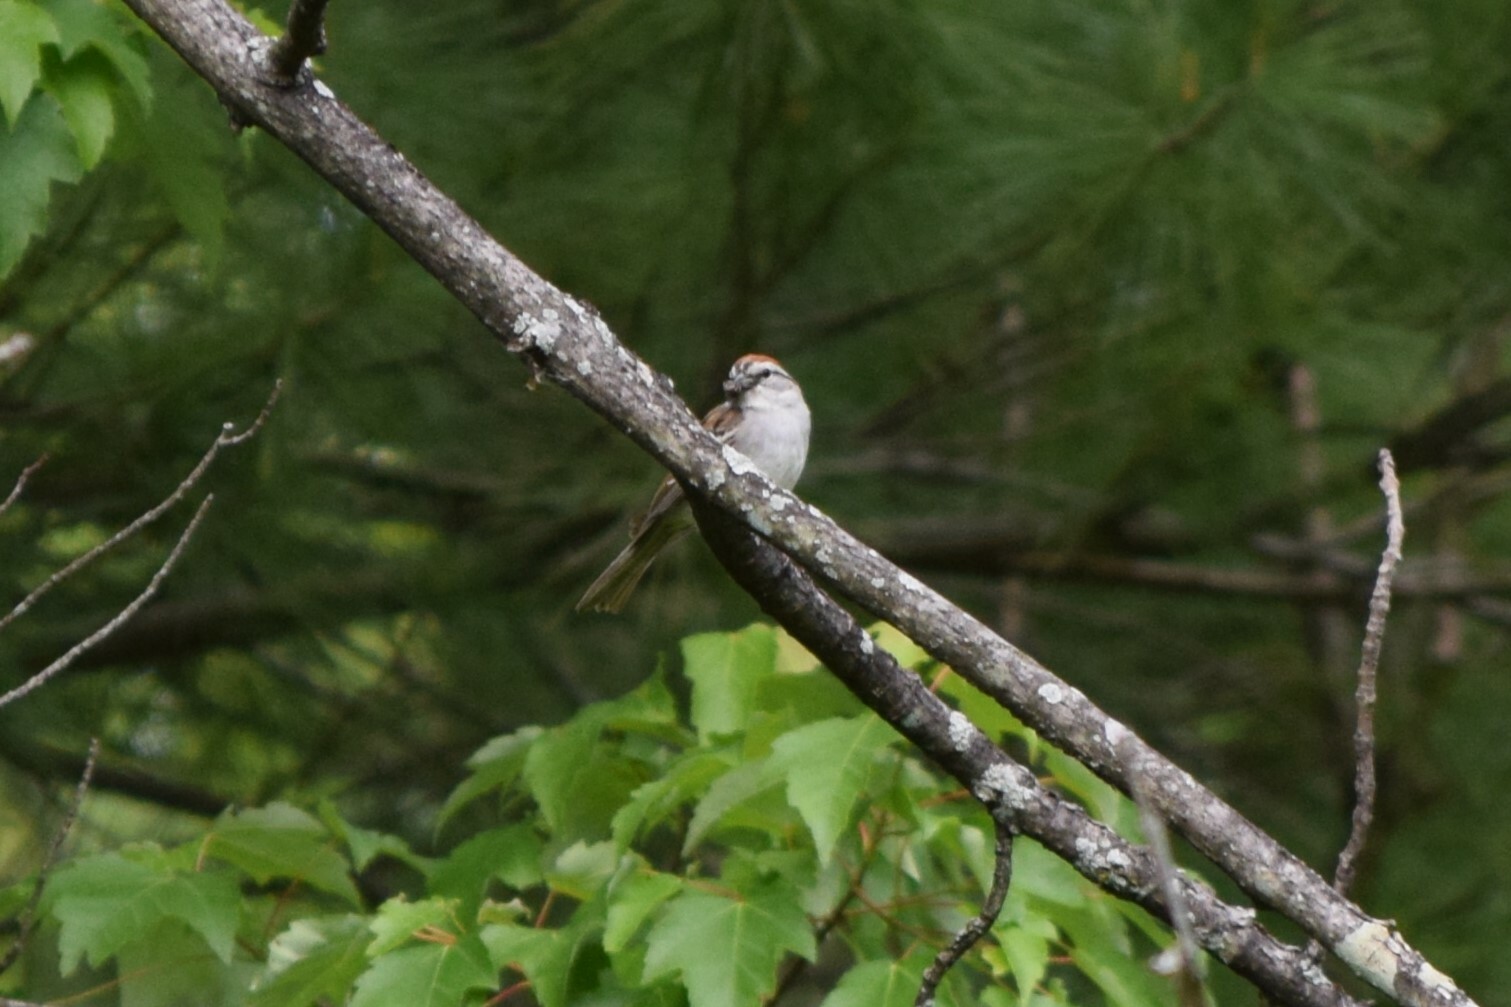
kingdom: Animalia
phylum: Chordata
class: Aves
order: Passeriformes
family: Passerellidae
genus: Spizella
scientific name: Spizella passerina
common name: Chipping sparrow
